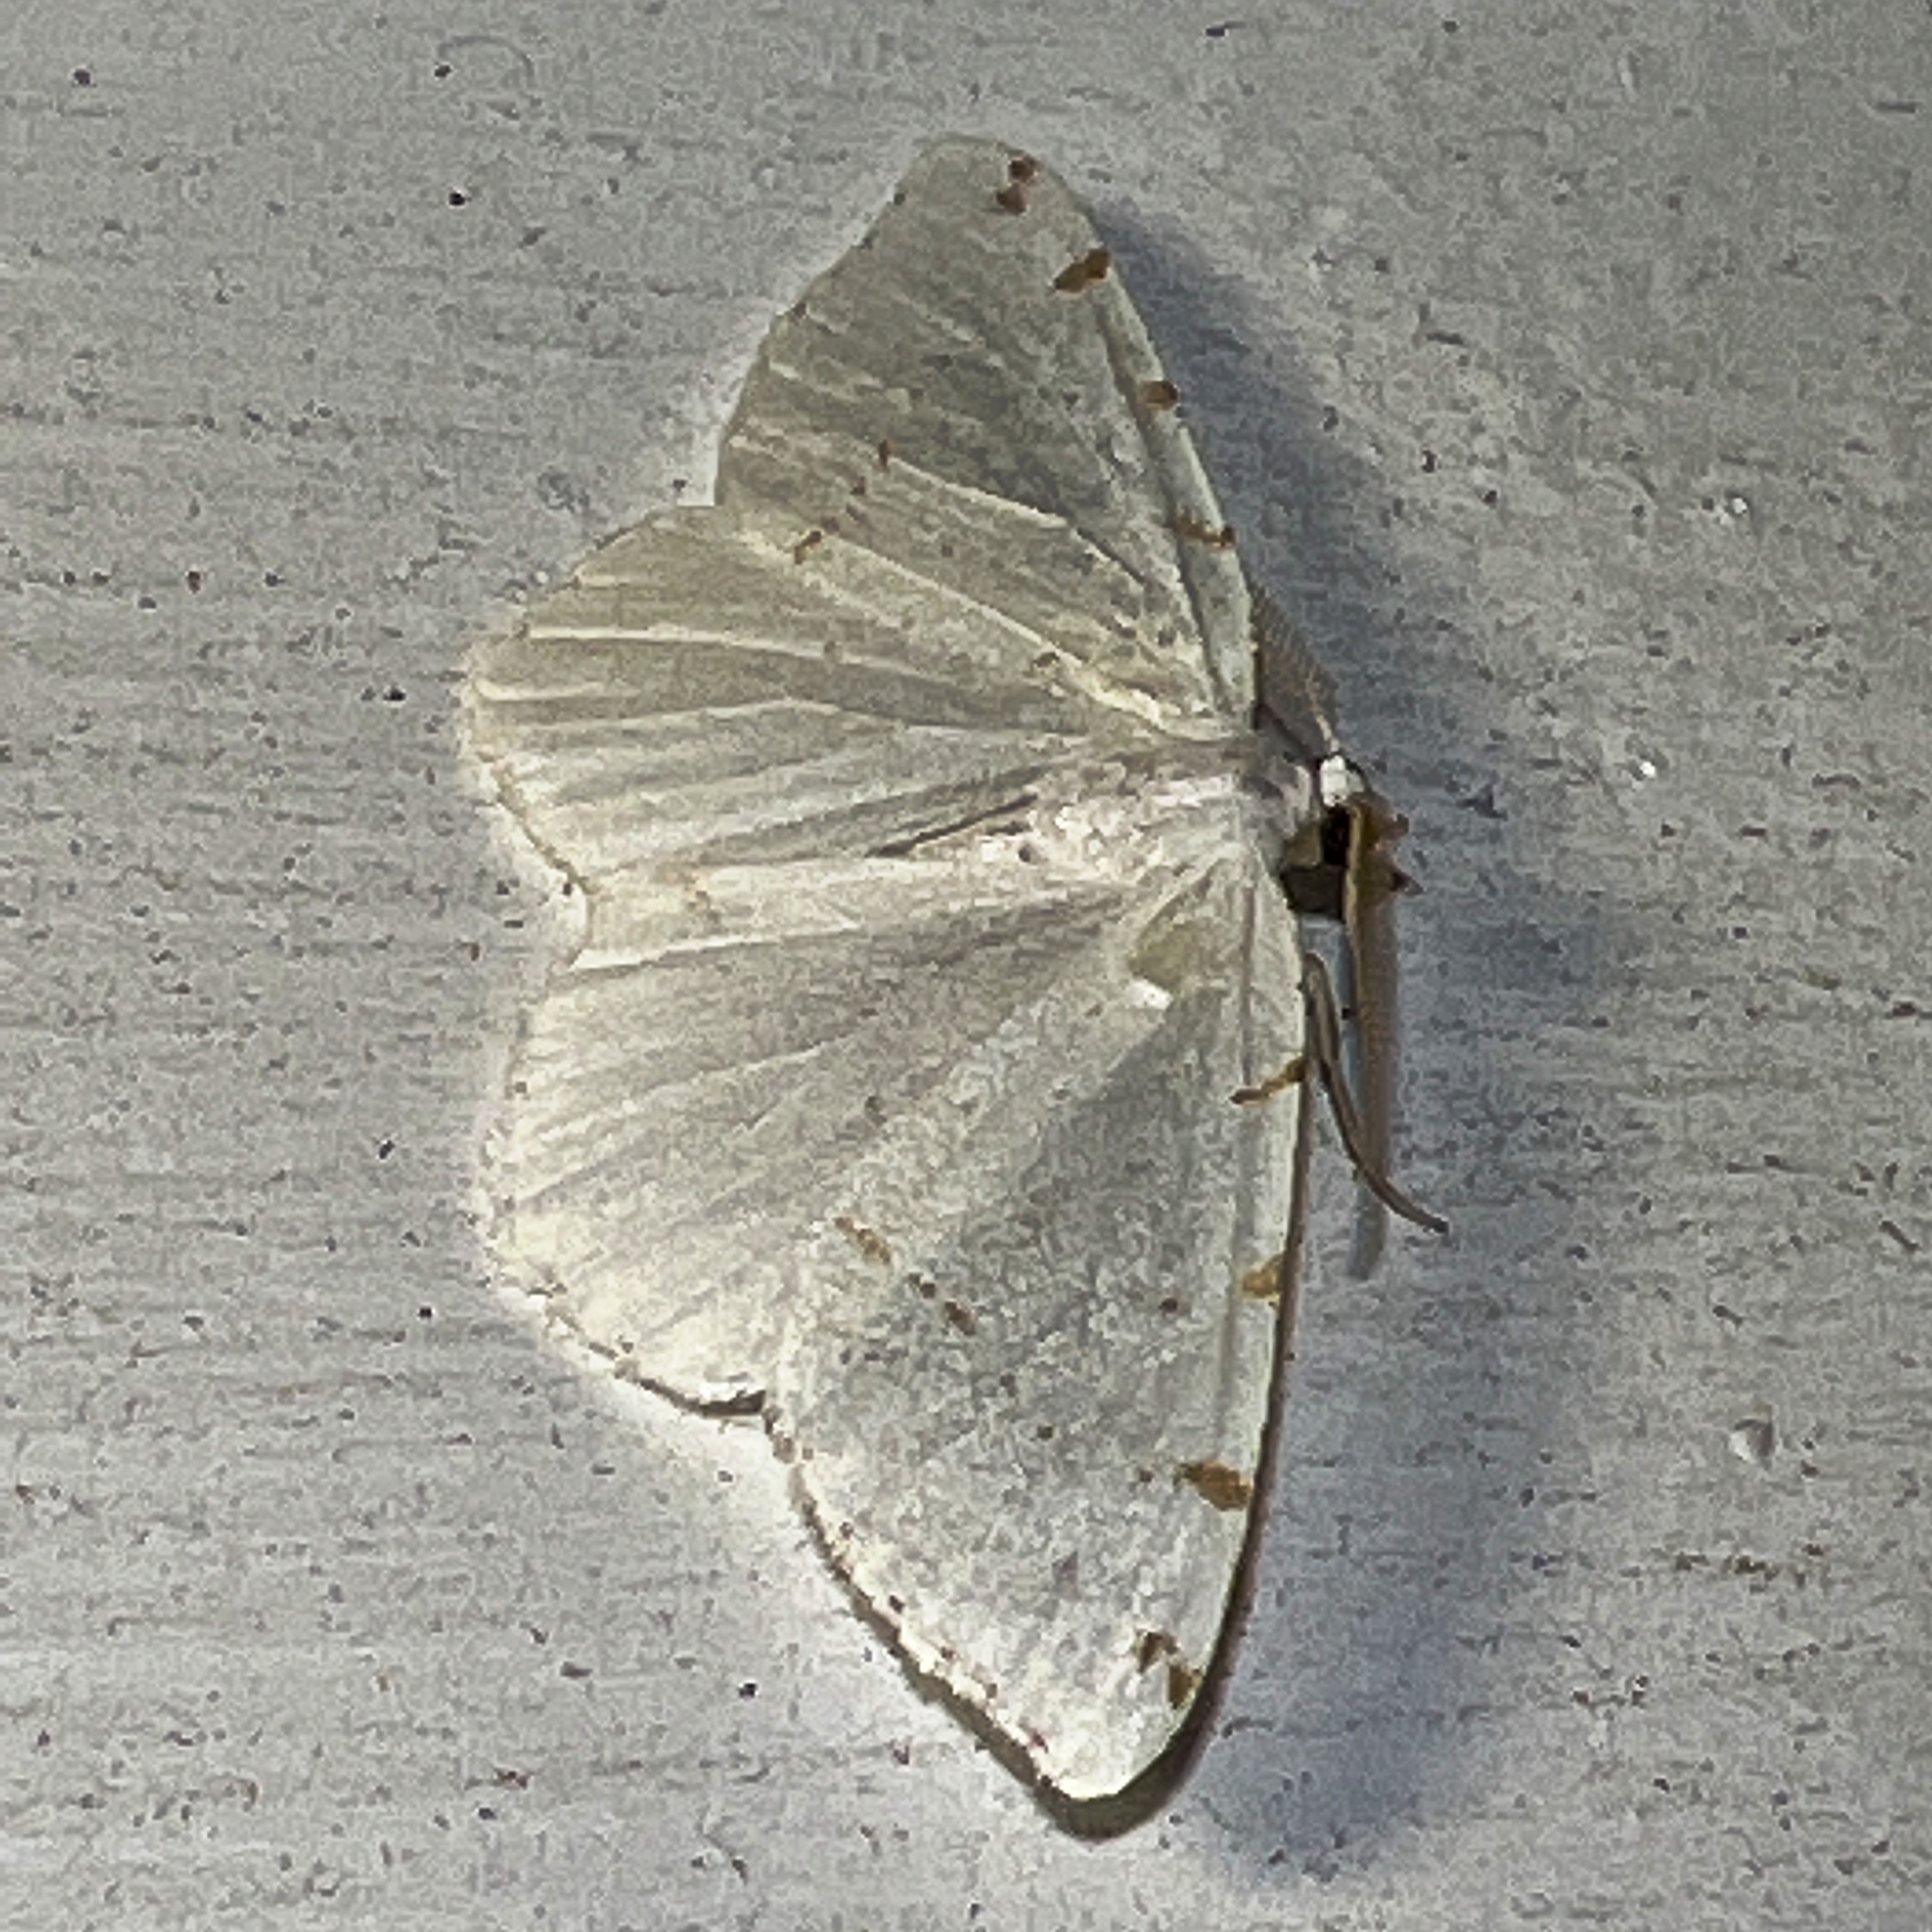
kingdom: Animalia
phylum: Arthropoda
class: Insecta
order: Lepidoptera
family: Geometridae
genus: Macaria
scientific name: Macaria pustularia
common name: Lesser maple spanworm moth
